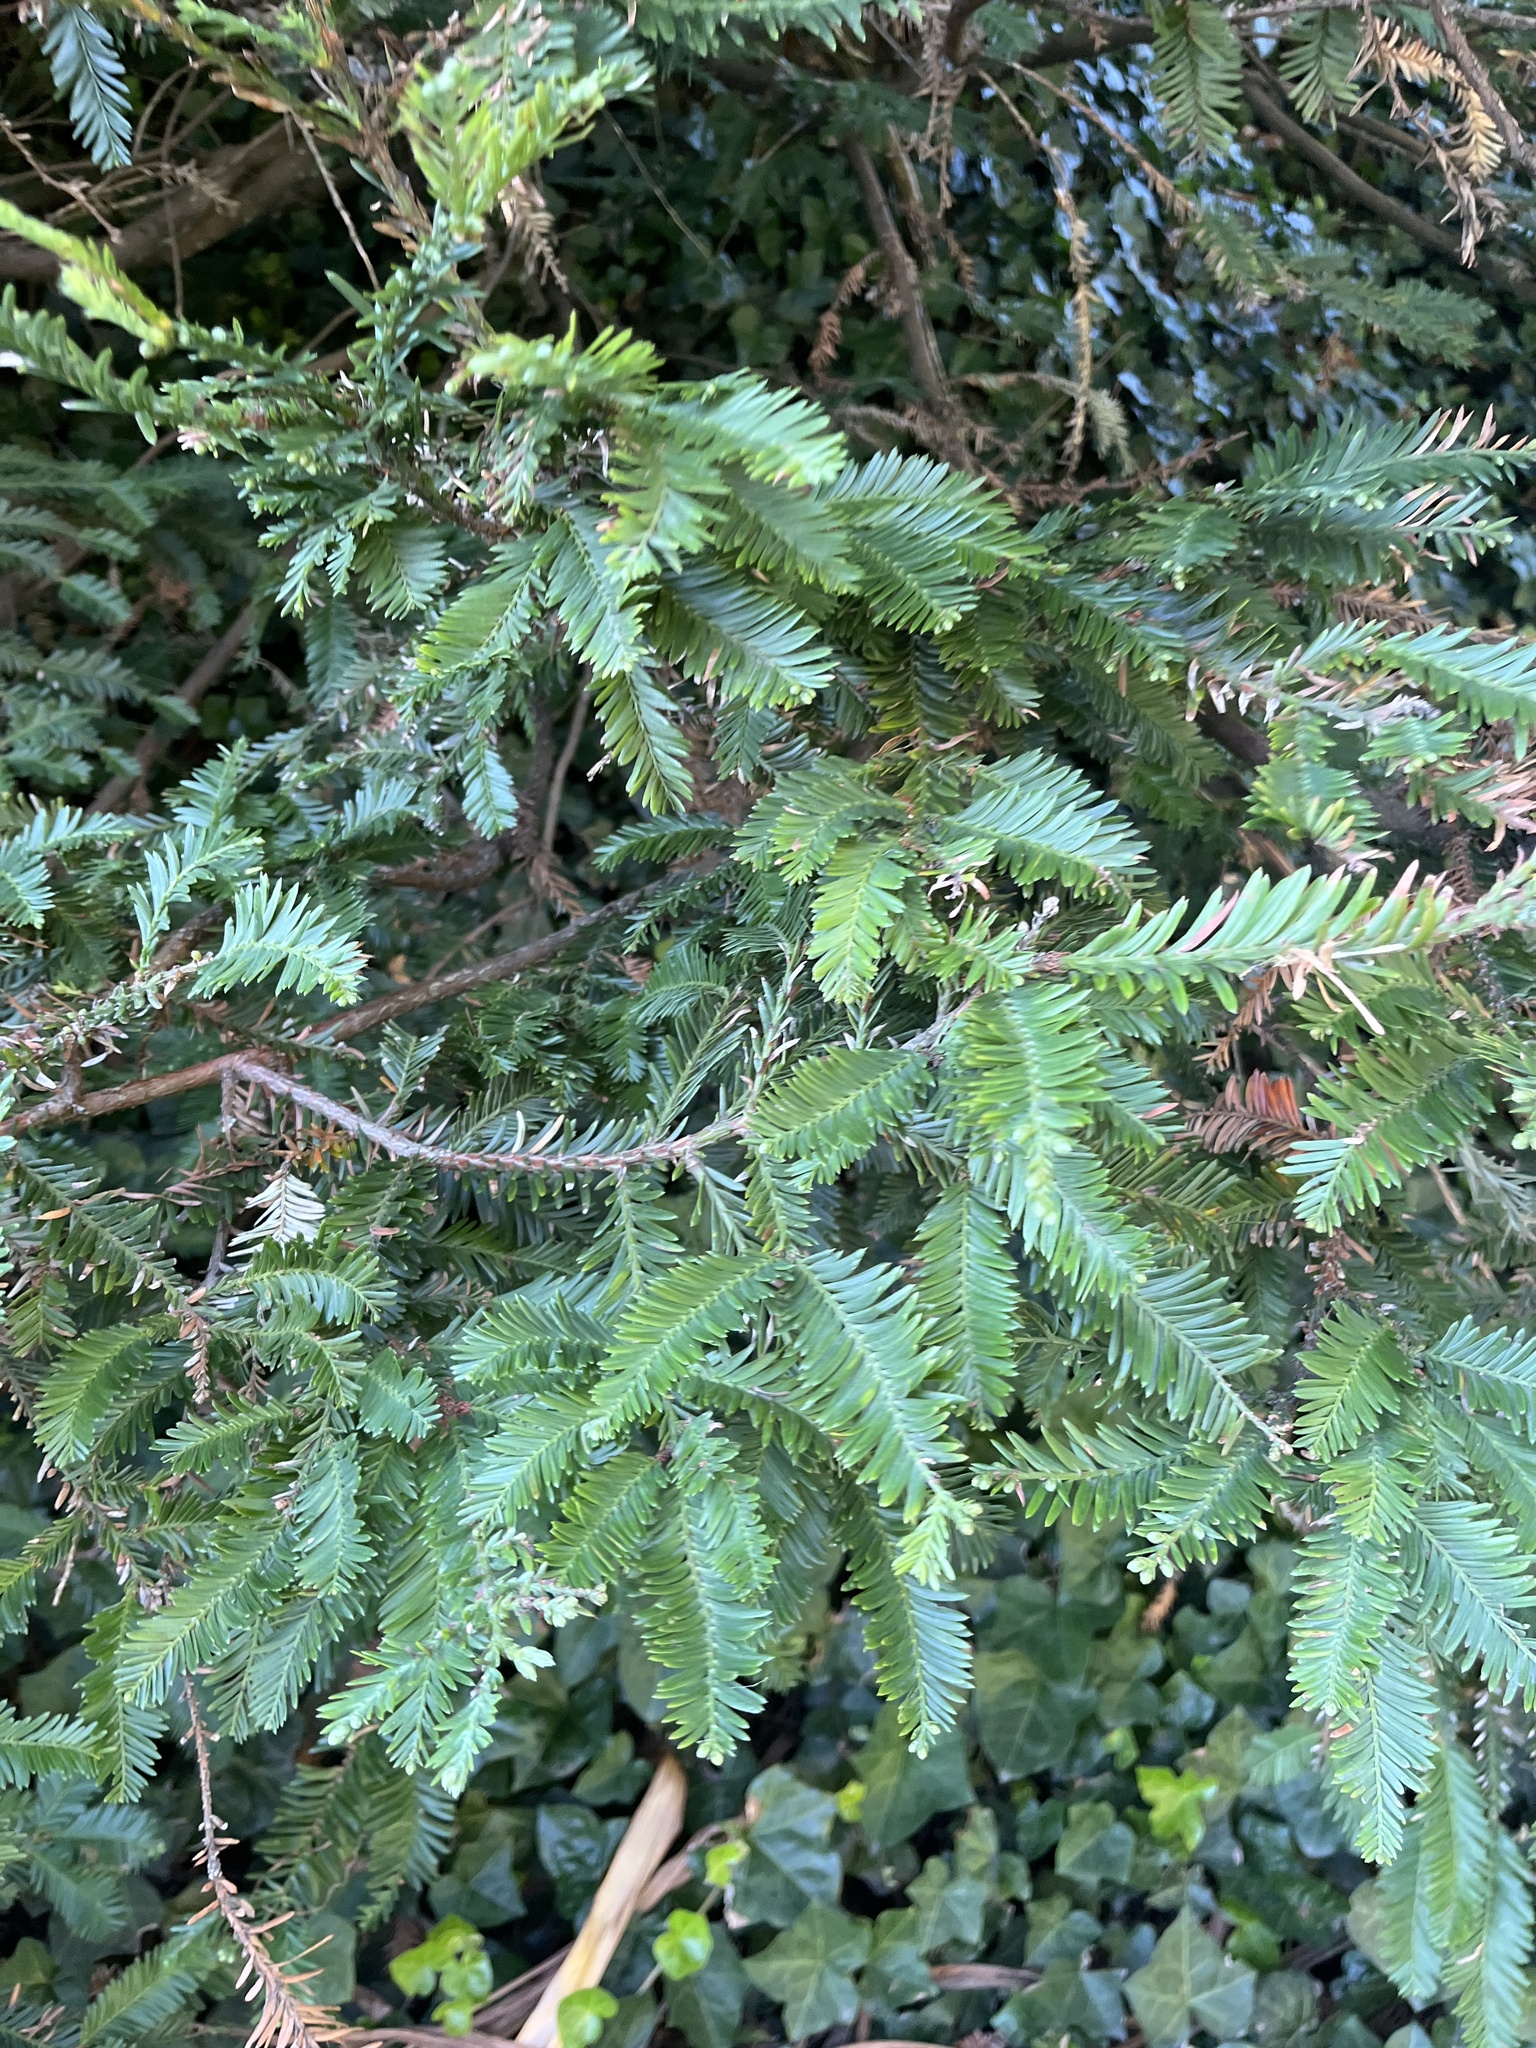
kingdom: Plantae
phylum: Tracheophyta
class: Pinopsida
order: Pinales
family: Cupressaceae
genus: Sequoia
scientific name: Sequoia sempervirens
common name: Coast redwood
